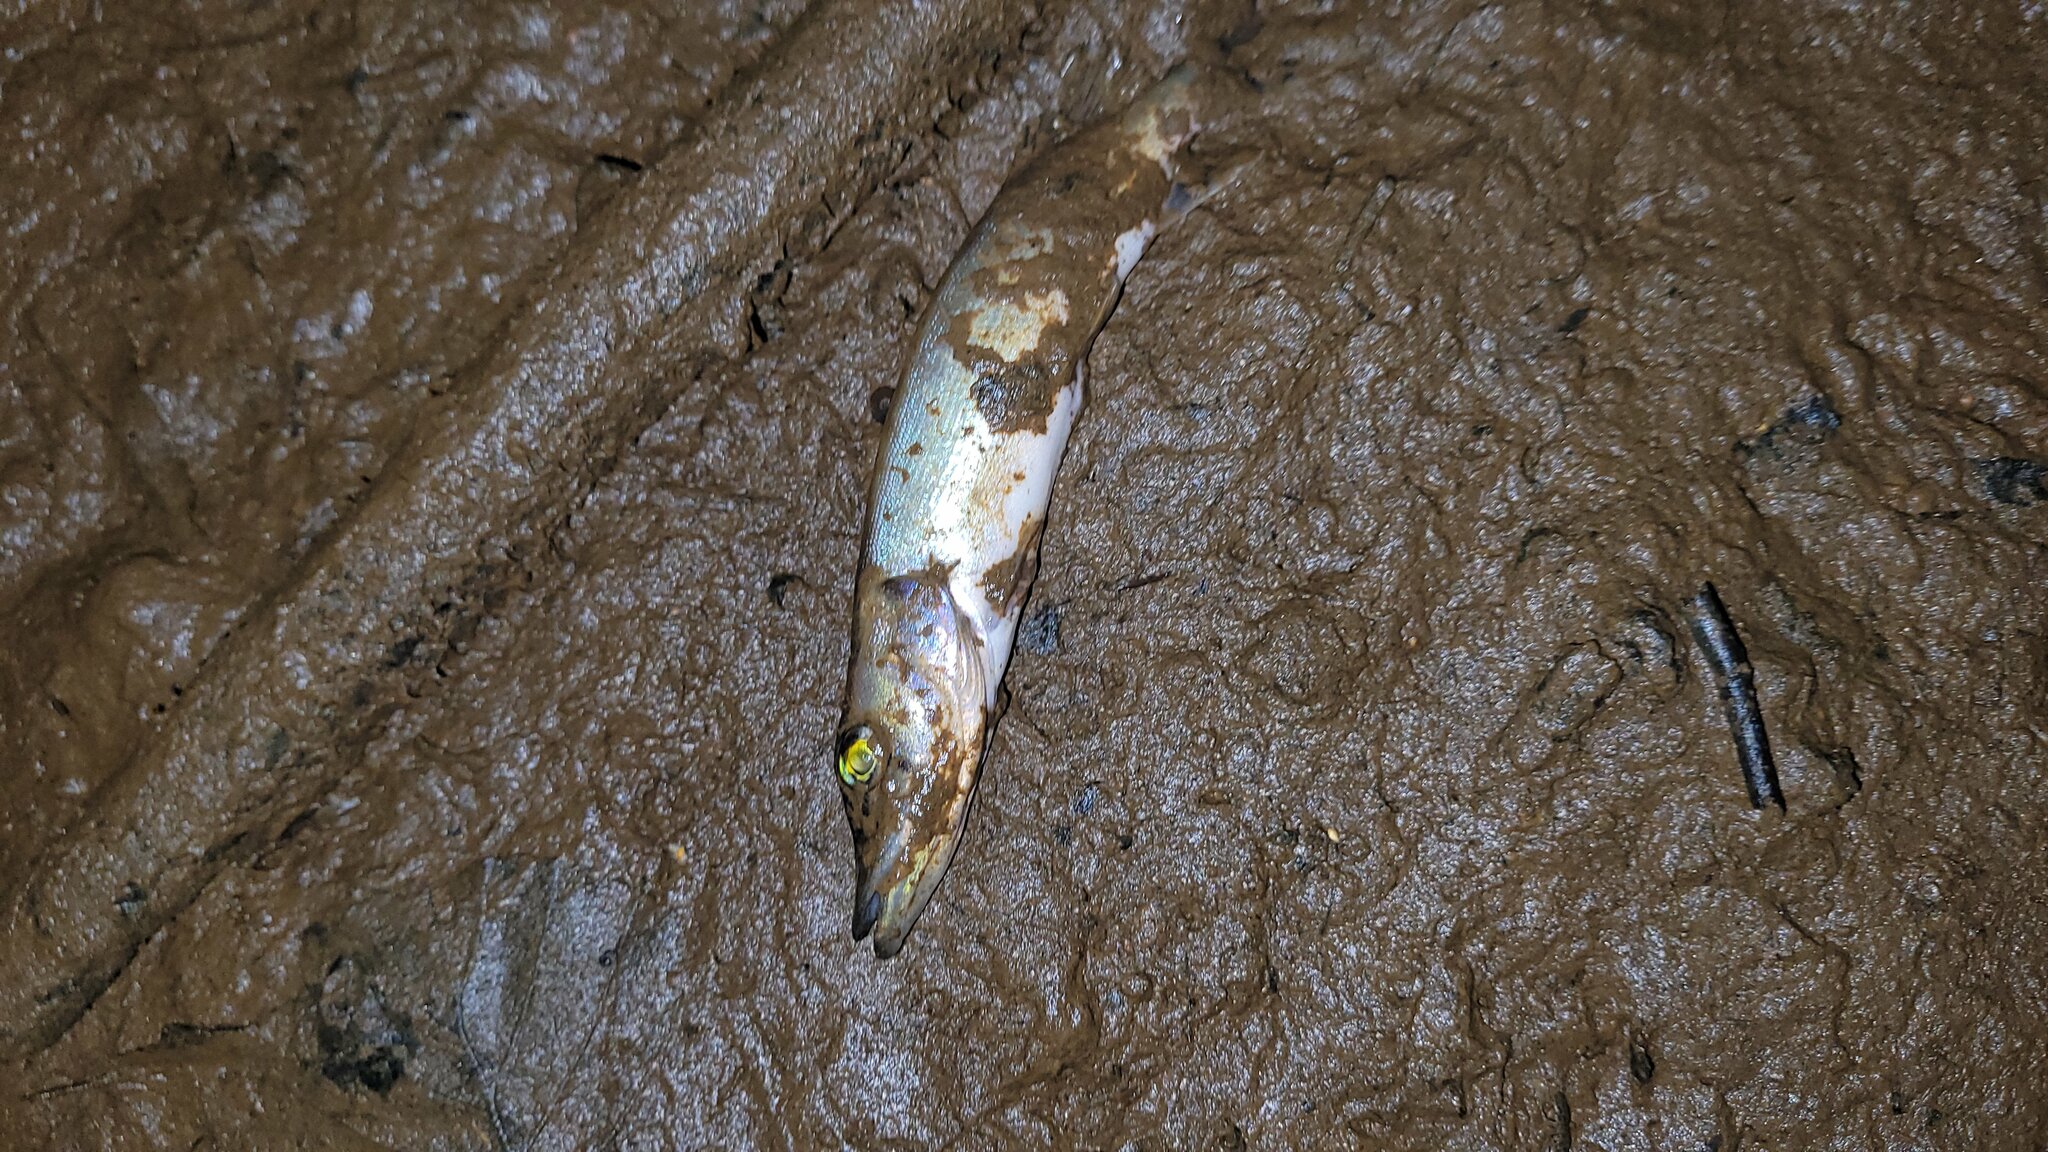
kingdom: Animalia
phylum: Chordata
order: Esociformes
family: Esocidae
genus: Esox
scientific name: Esox lucius
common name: Northern pike
